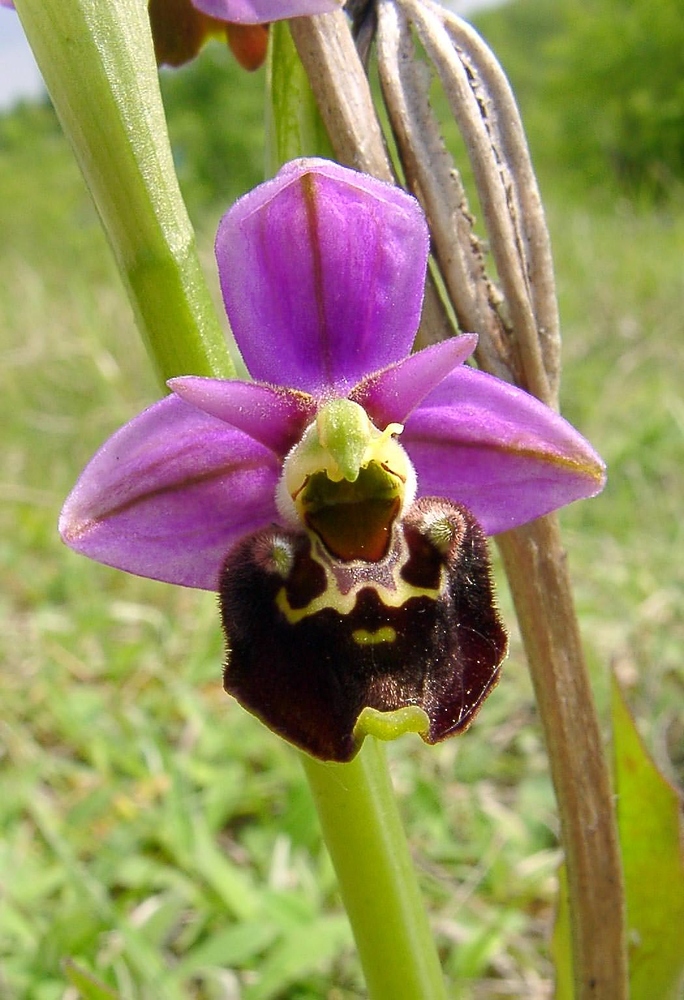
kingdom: Plantae
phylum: Tracheophyta
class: Liliopsida
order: Asparagales
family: Orchidaceae
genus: Ophrys
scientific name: Ophrys holosericea
